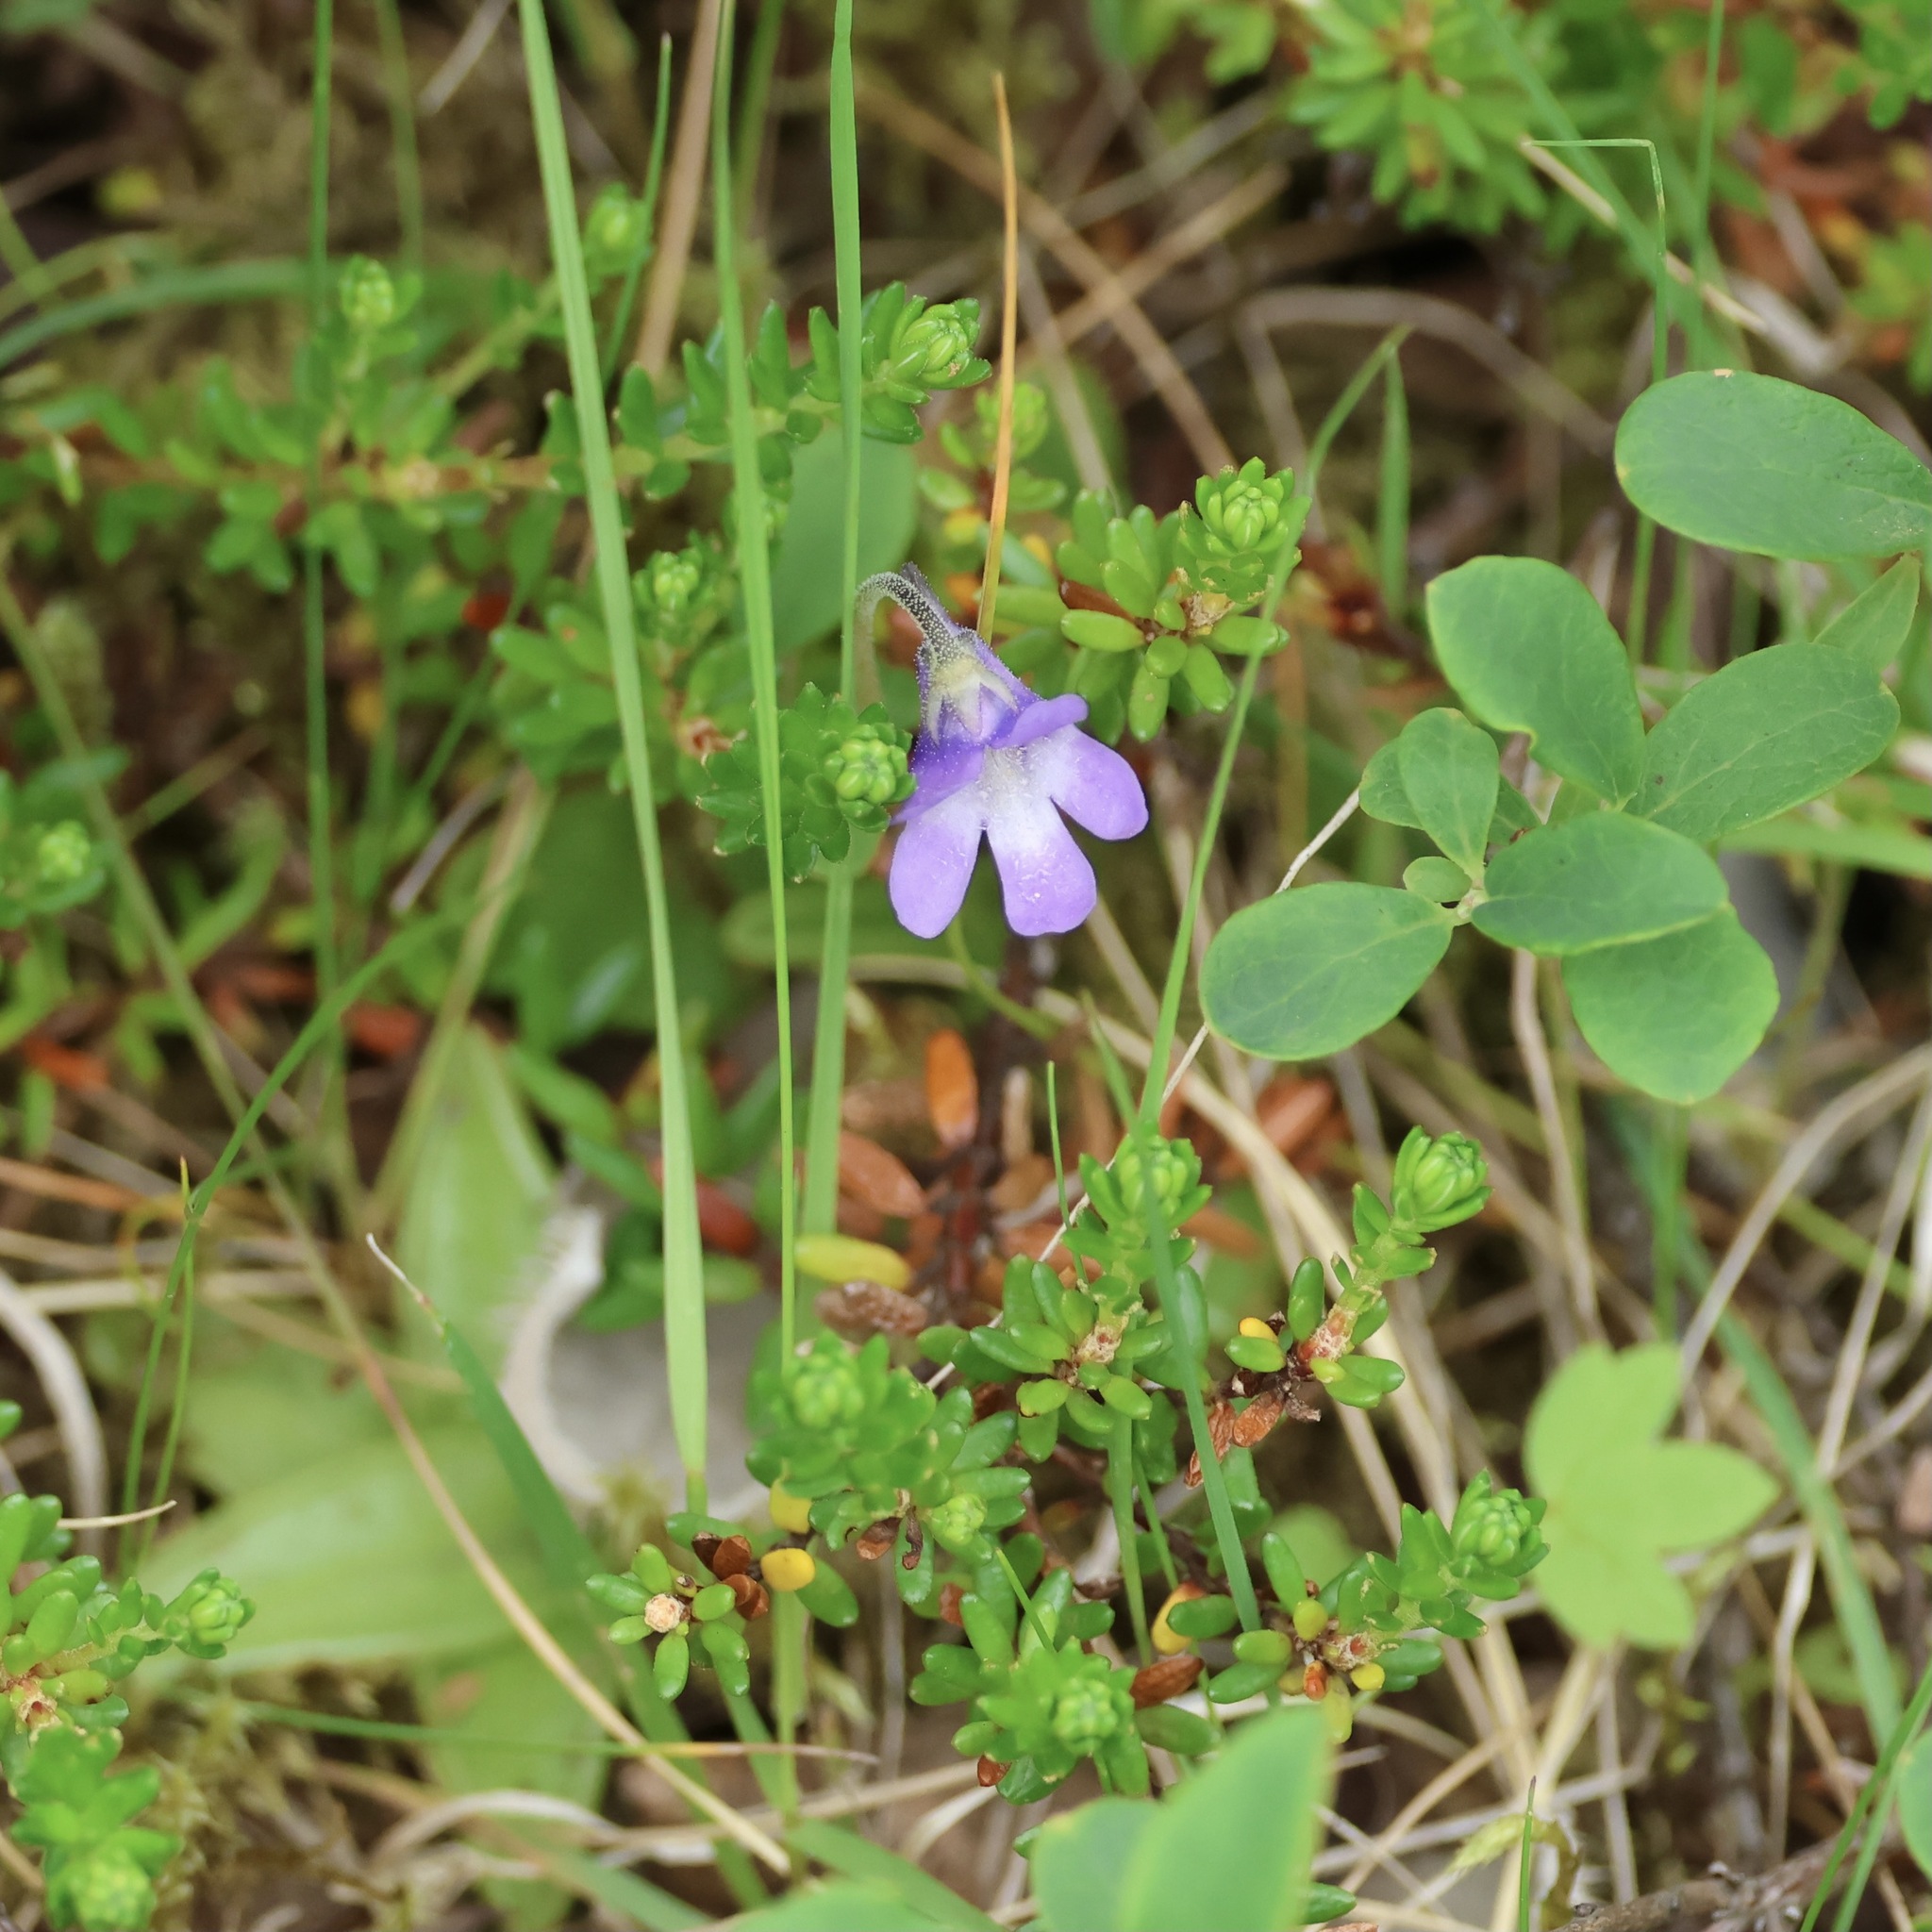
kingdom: Plantae
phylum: Tracheophyta
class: Magnoliopsida
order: Lamiales
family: Lentibulariaceae
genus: Pinguicula
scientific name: Pinguicula vulgaris
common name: Common butterwort
